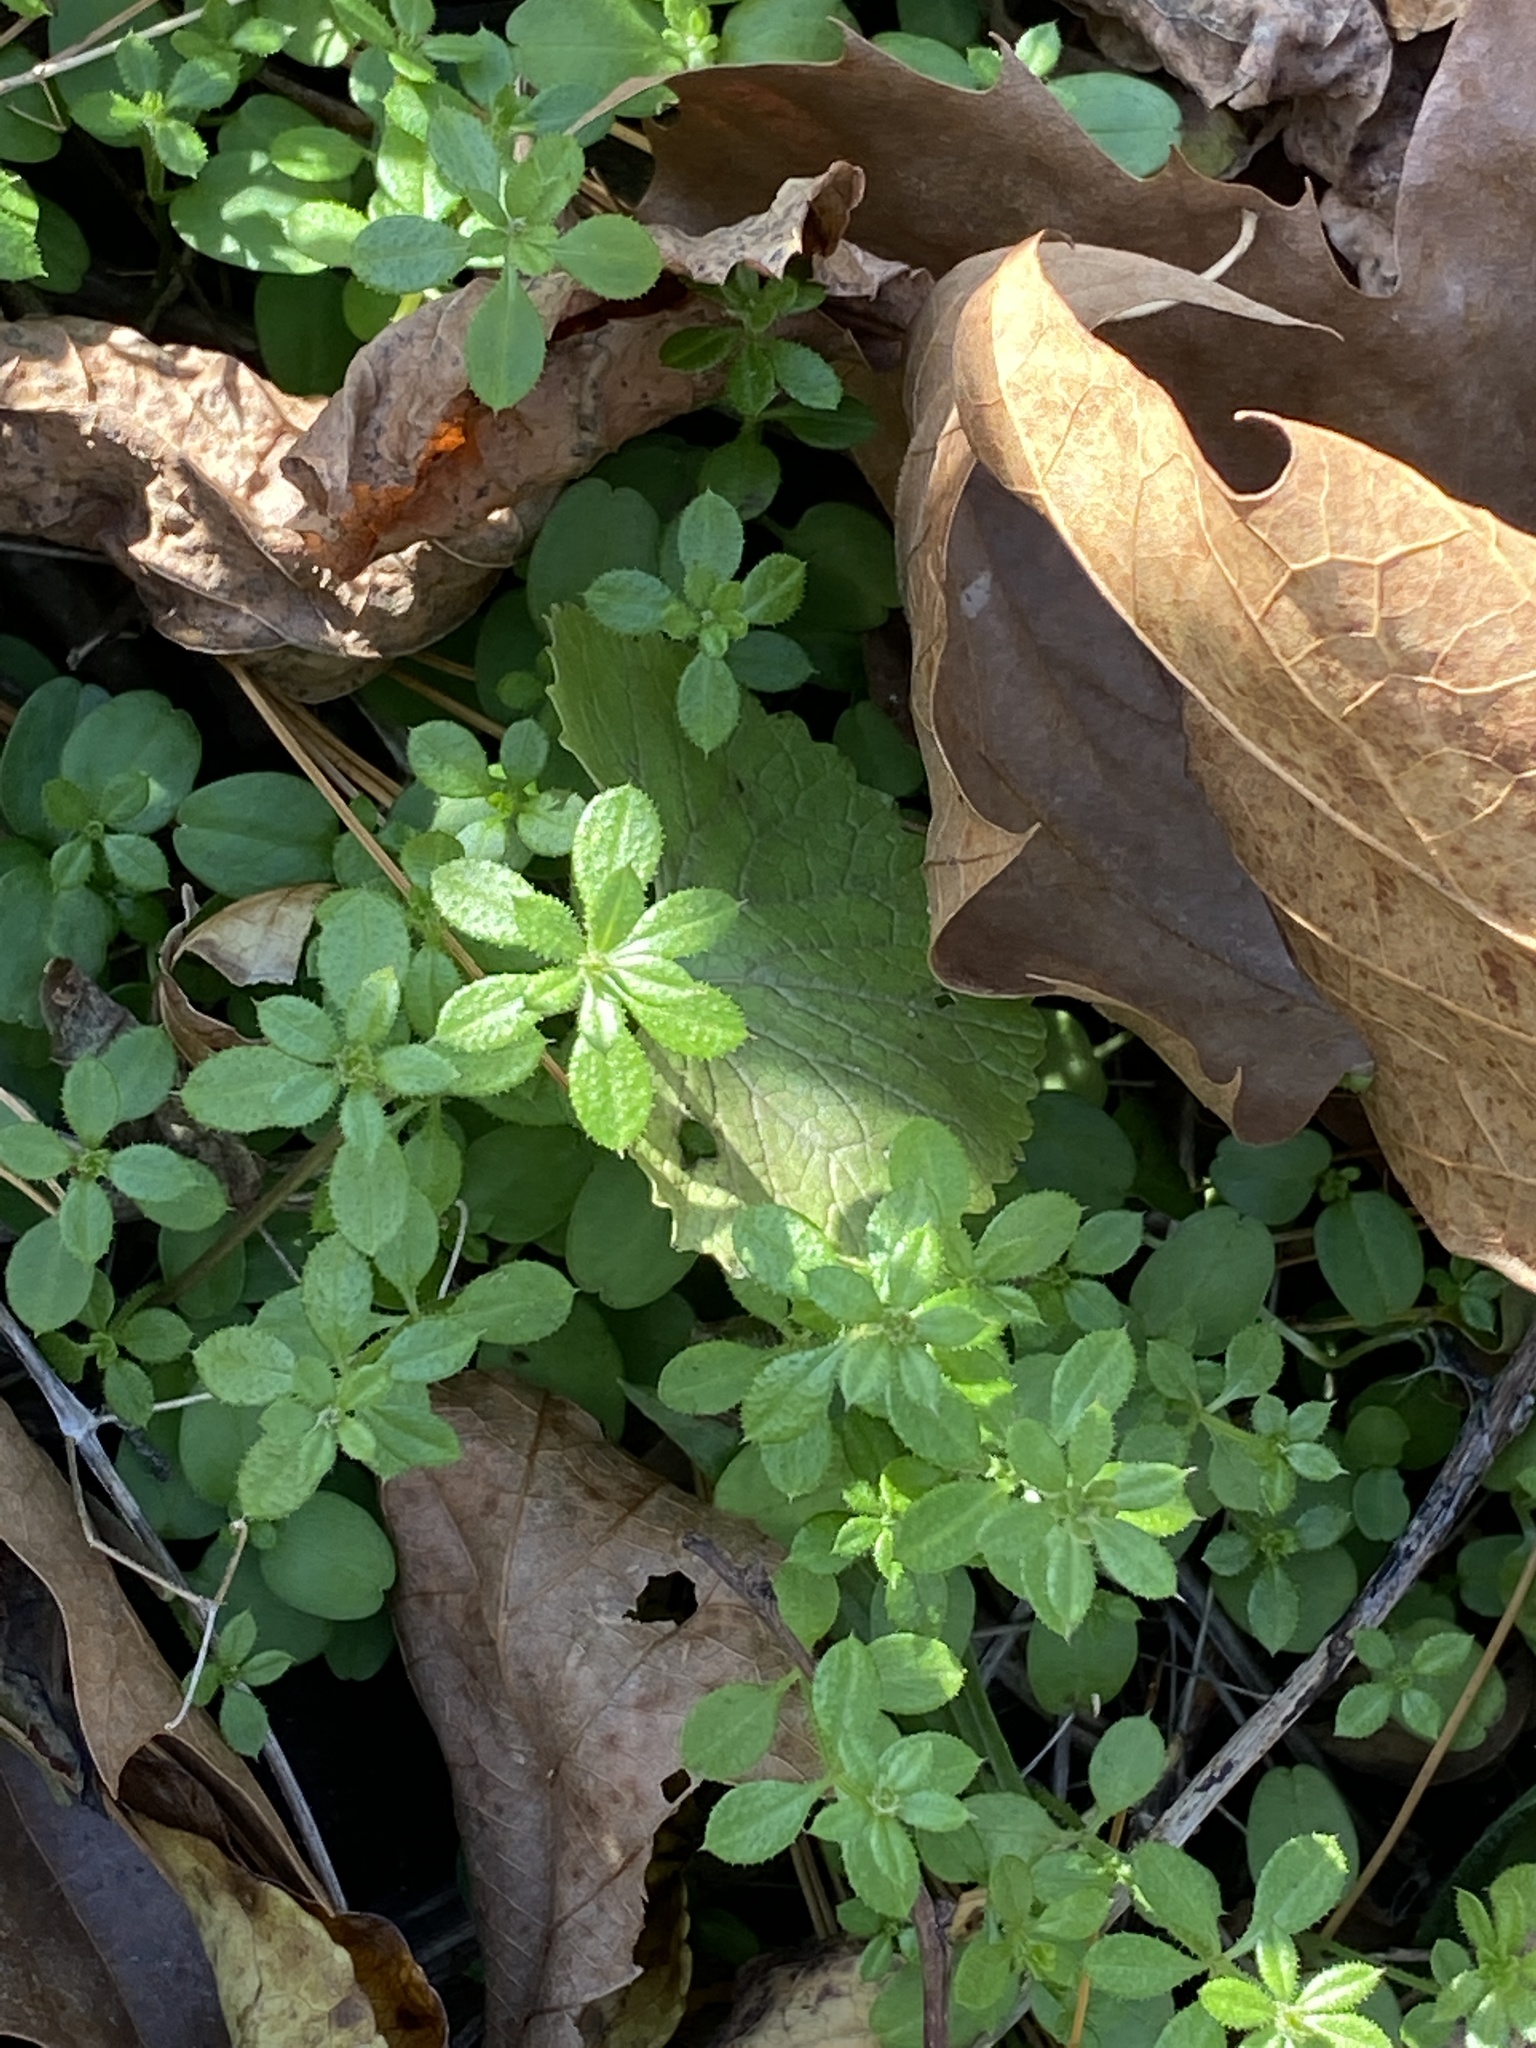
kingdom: Plantae
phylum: Tracheophyta
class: Magnoliopsida
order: Gentianales
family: Rubiaceae
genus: Galium
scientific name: Galium aparine
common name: Cleavers
